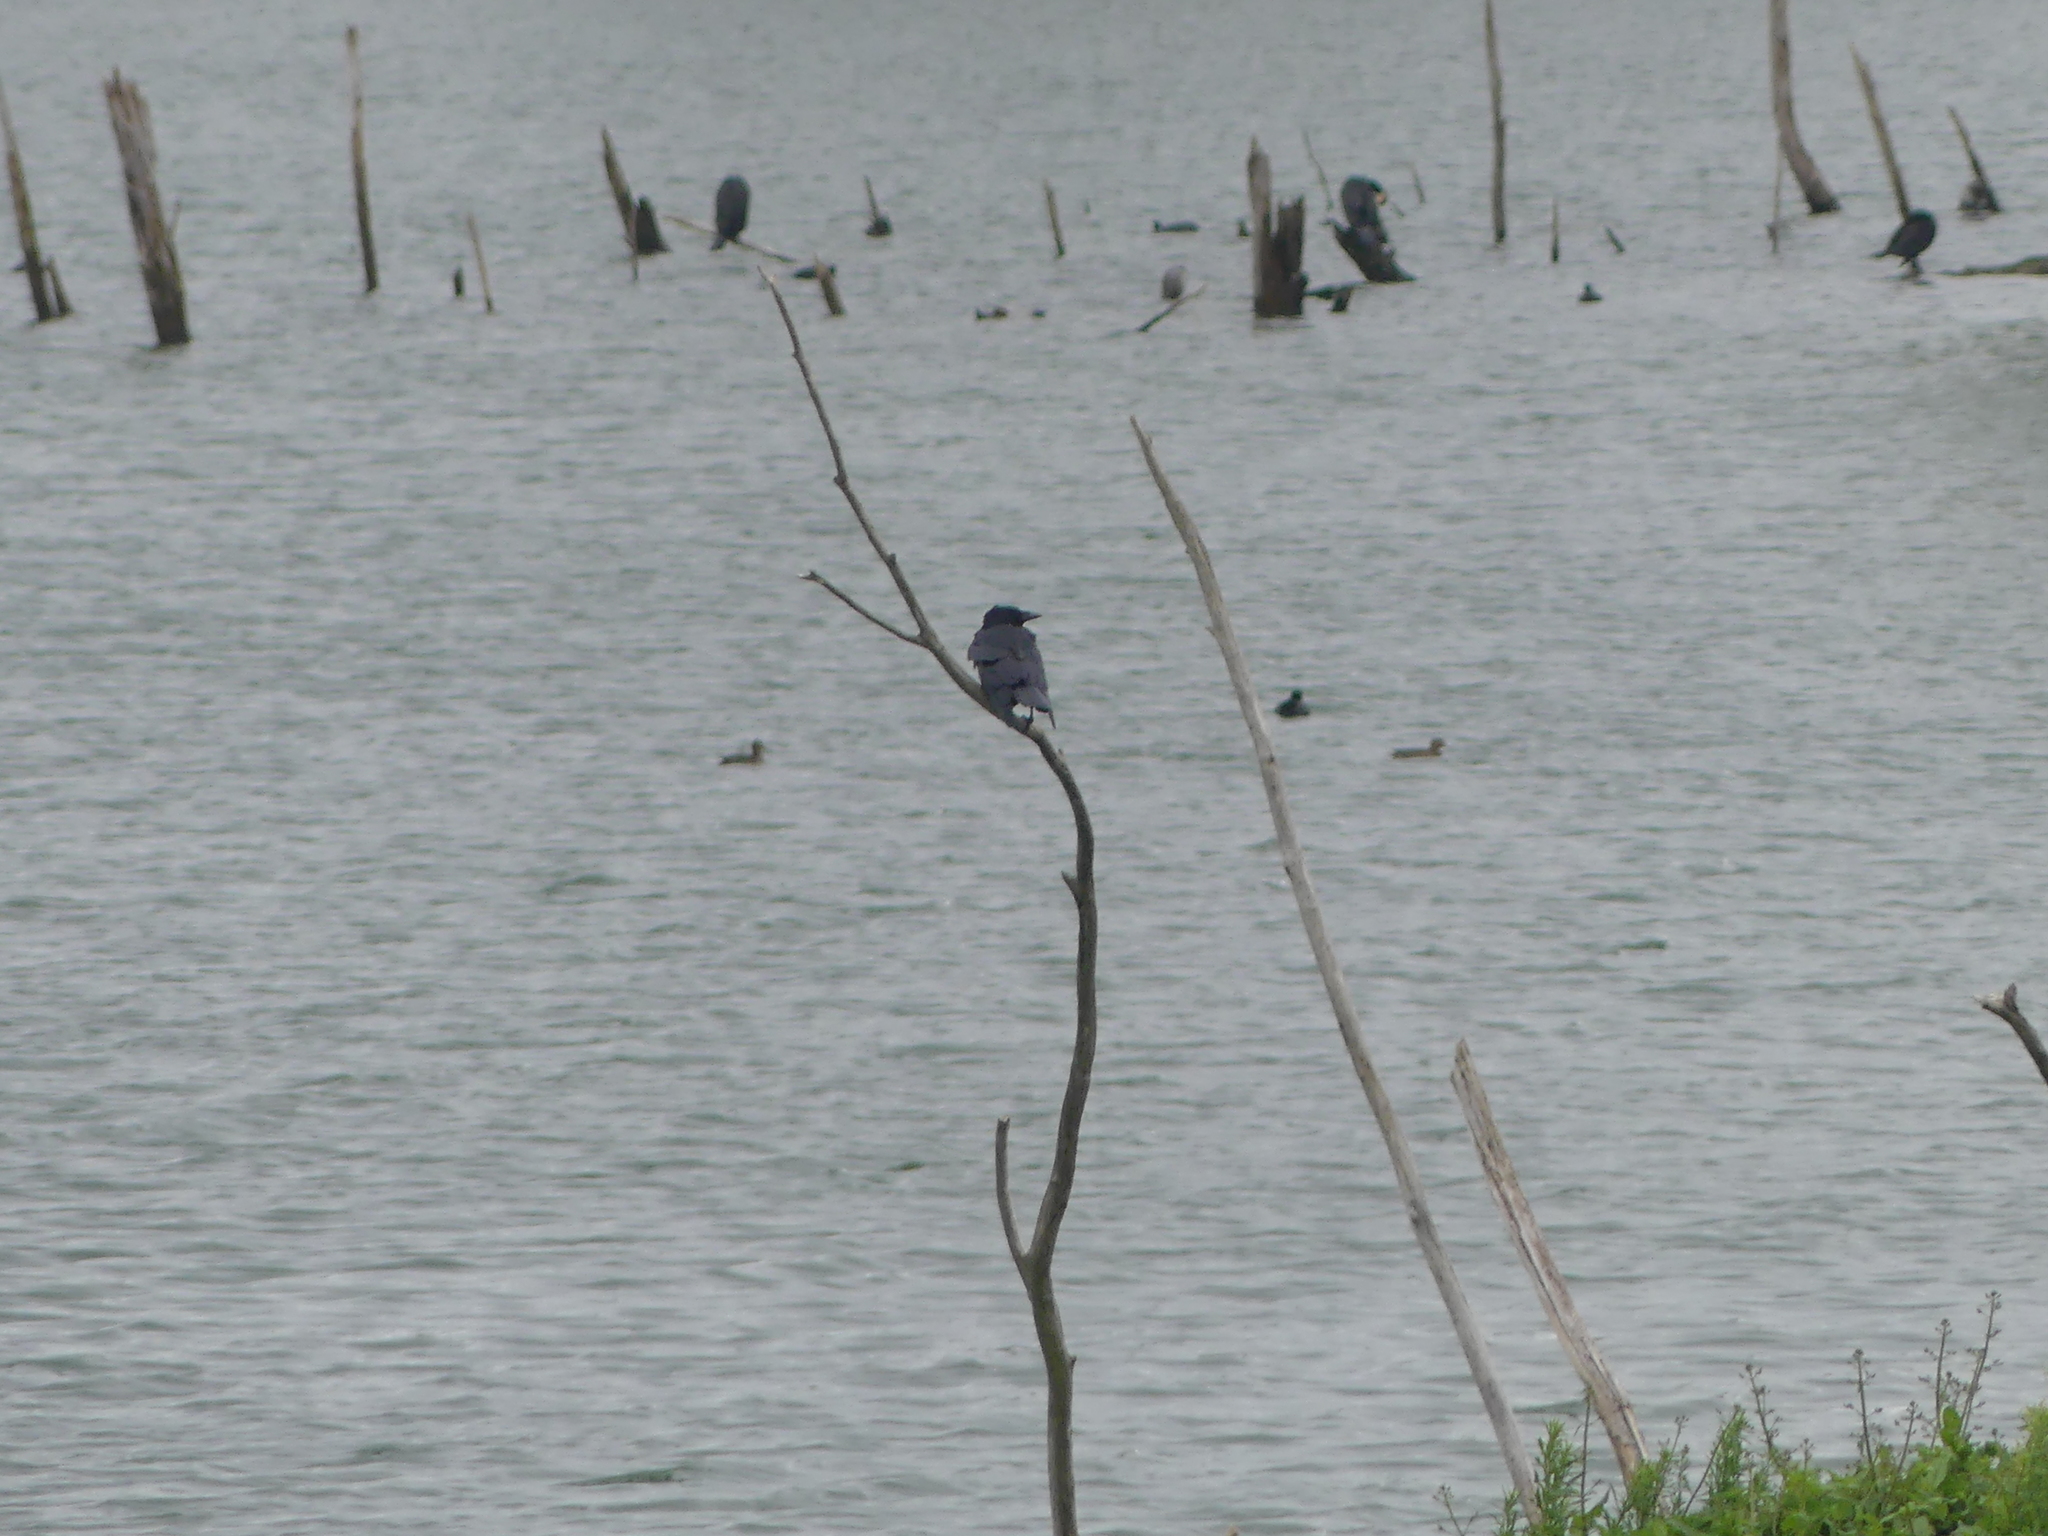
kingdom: Animalia
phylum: Chordata
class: Aves
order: Passeriformes
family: Corvidae
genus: Corvus
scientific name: Corvus corone
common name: Carrion crow
